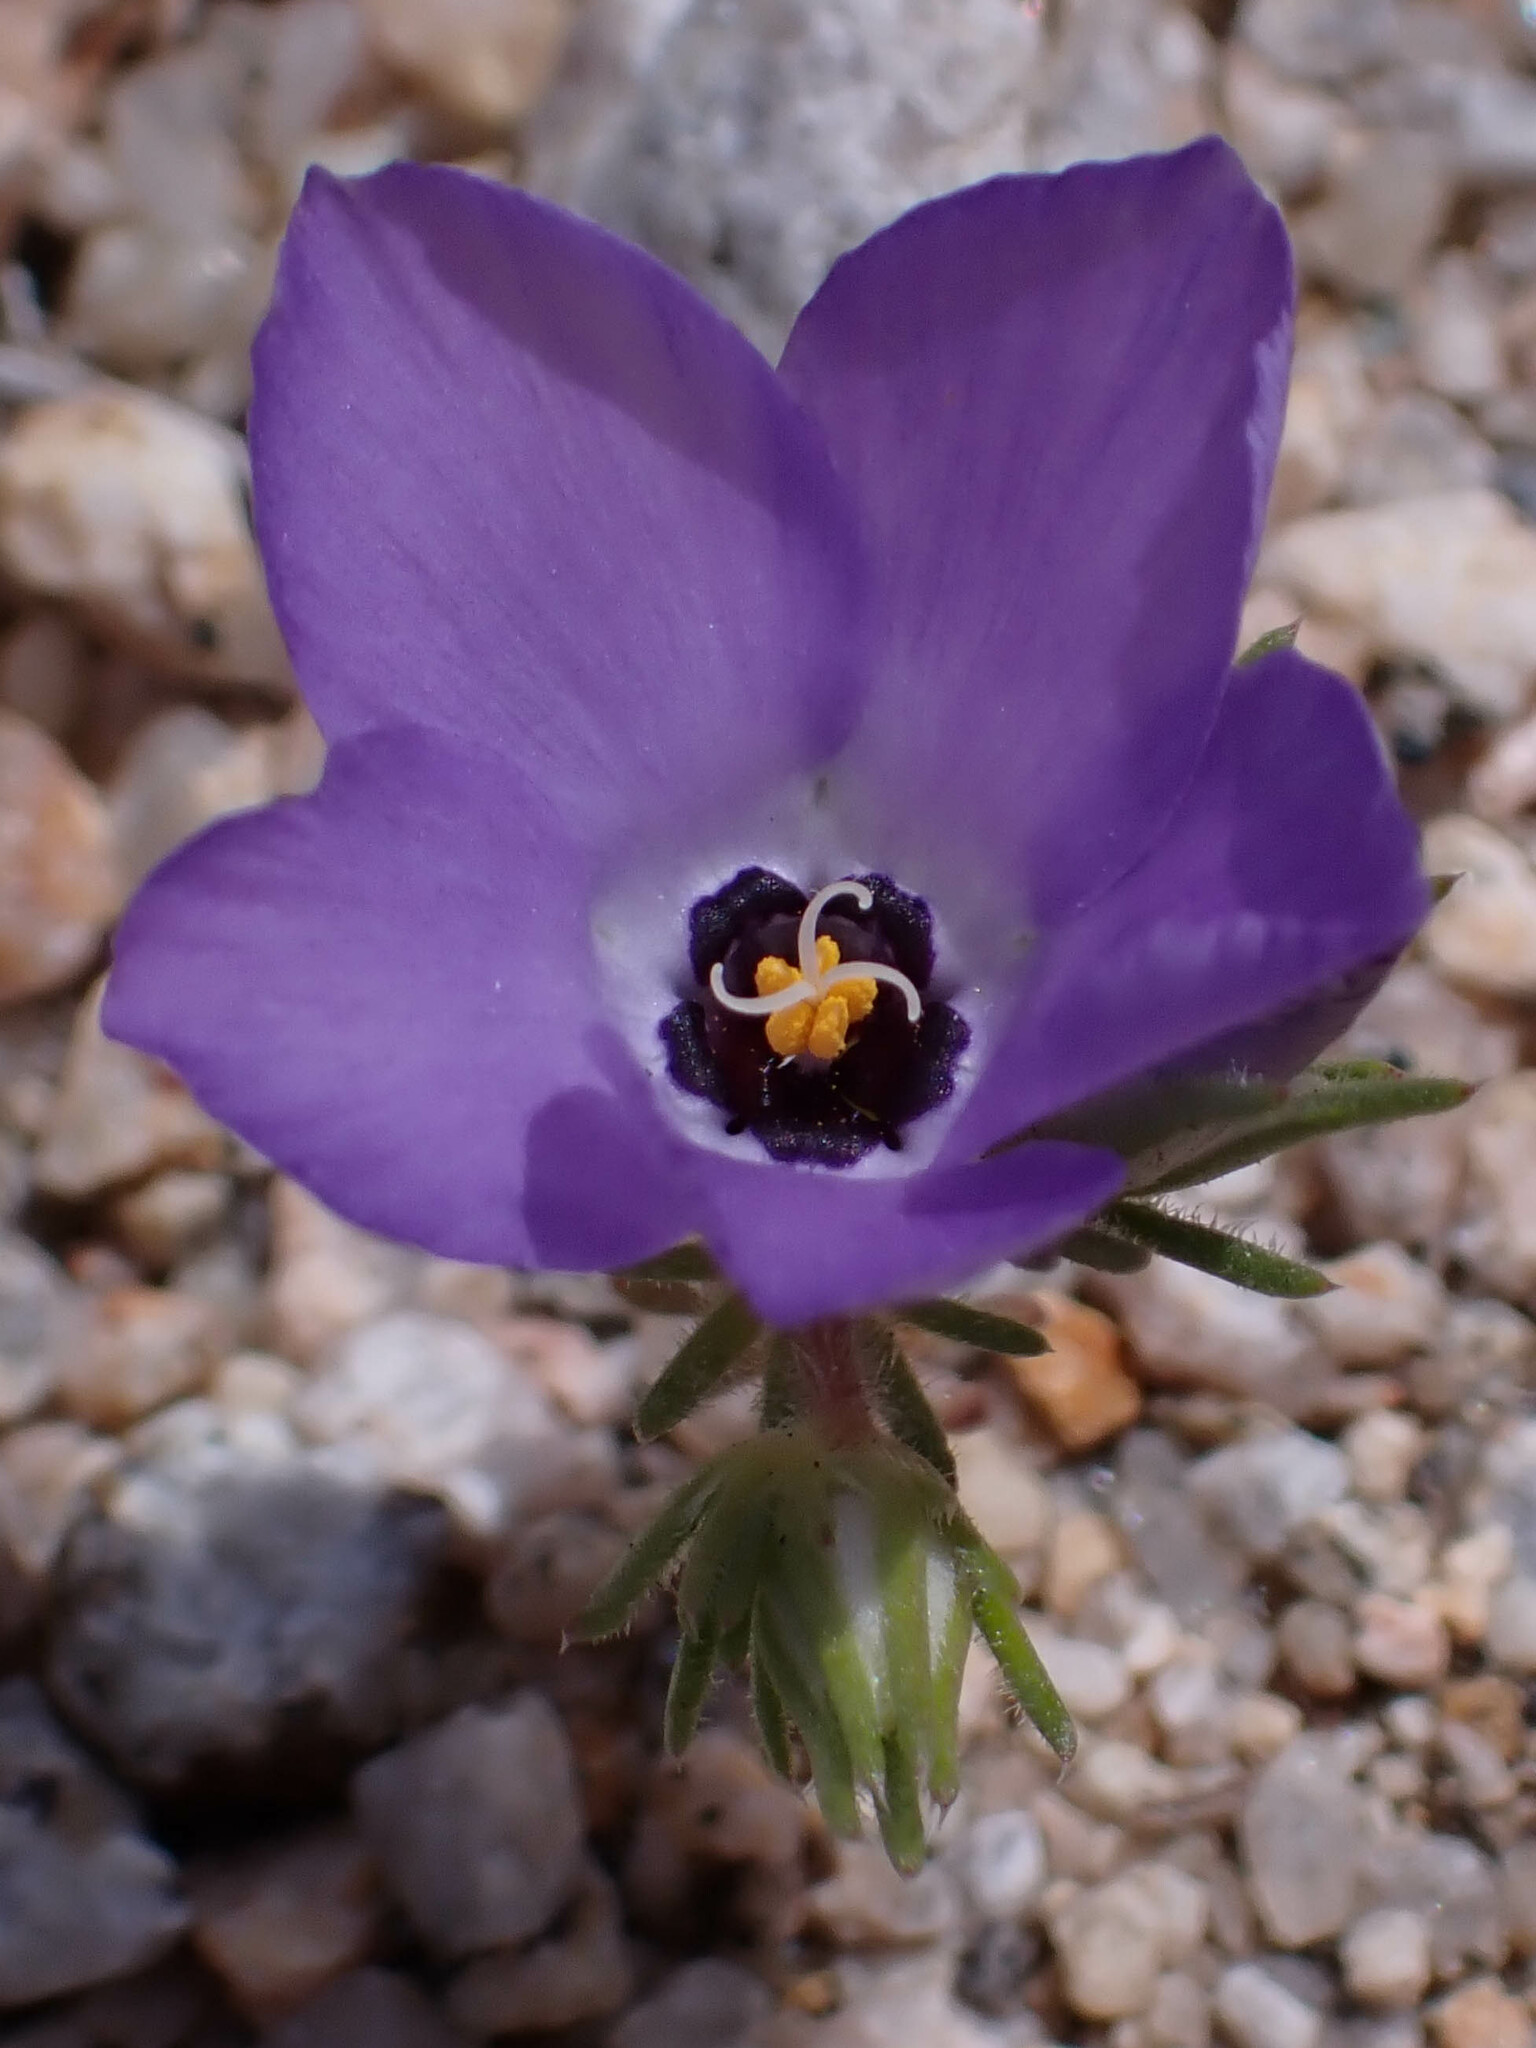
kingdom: Plantae
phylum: Tracheophyta
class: Magnoliopsida
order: Ericales
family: Polemoniaceae
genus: Linanthus
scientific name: Linanthus parryae
